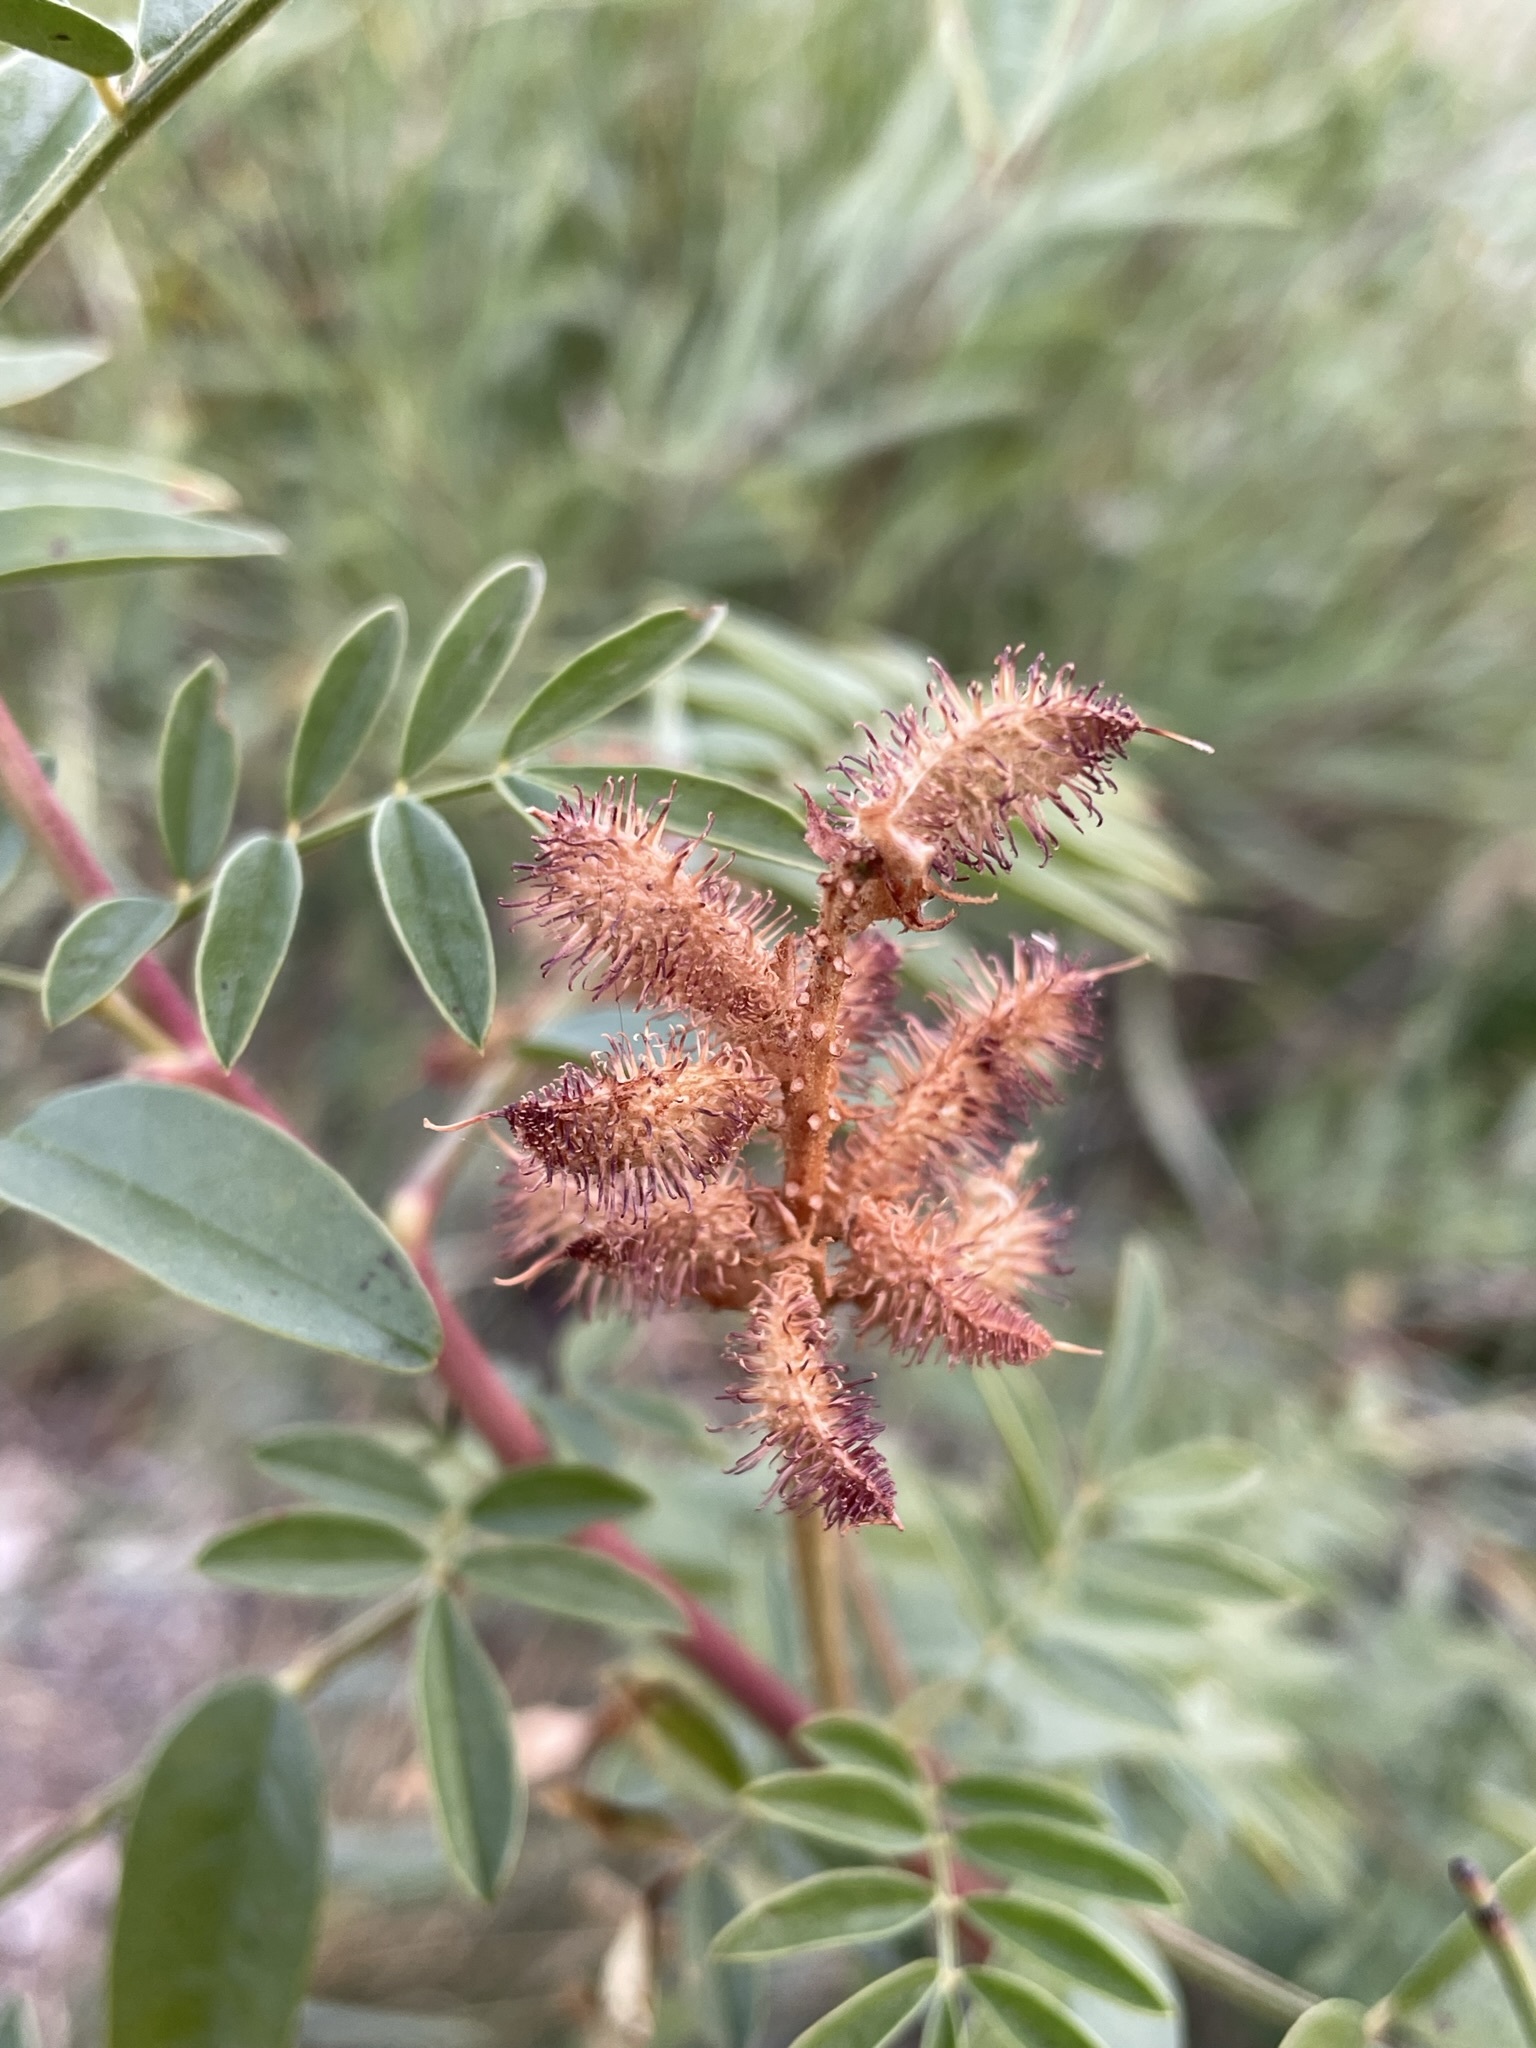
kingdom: Plantae
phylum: Tracheophyta
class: Magnoliopsida
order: Fabales
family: Fabaceae
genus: Glycyrrhiza
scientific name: Glycyrrhiza lepidota
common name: American liquorice
